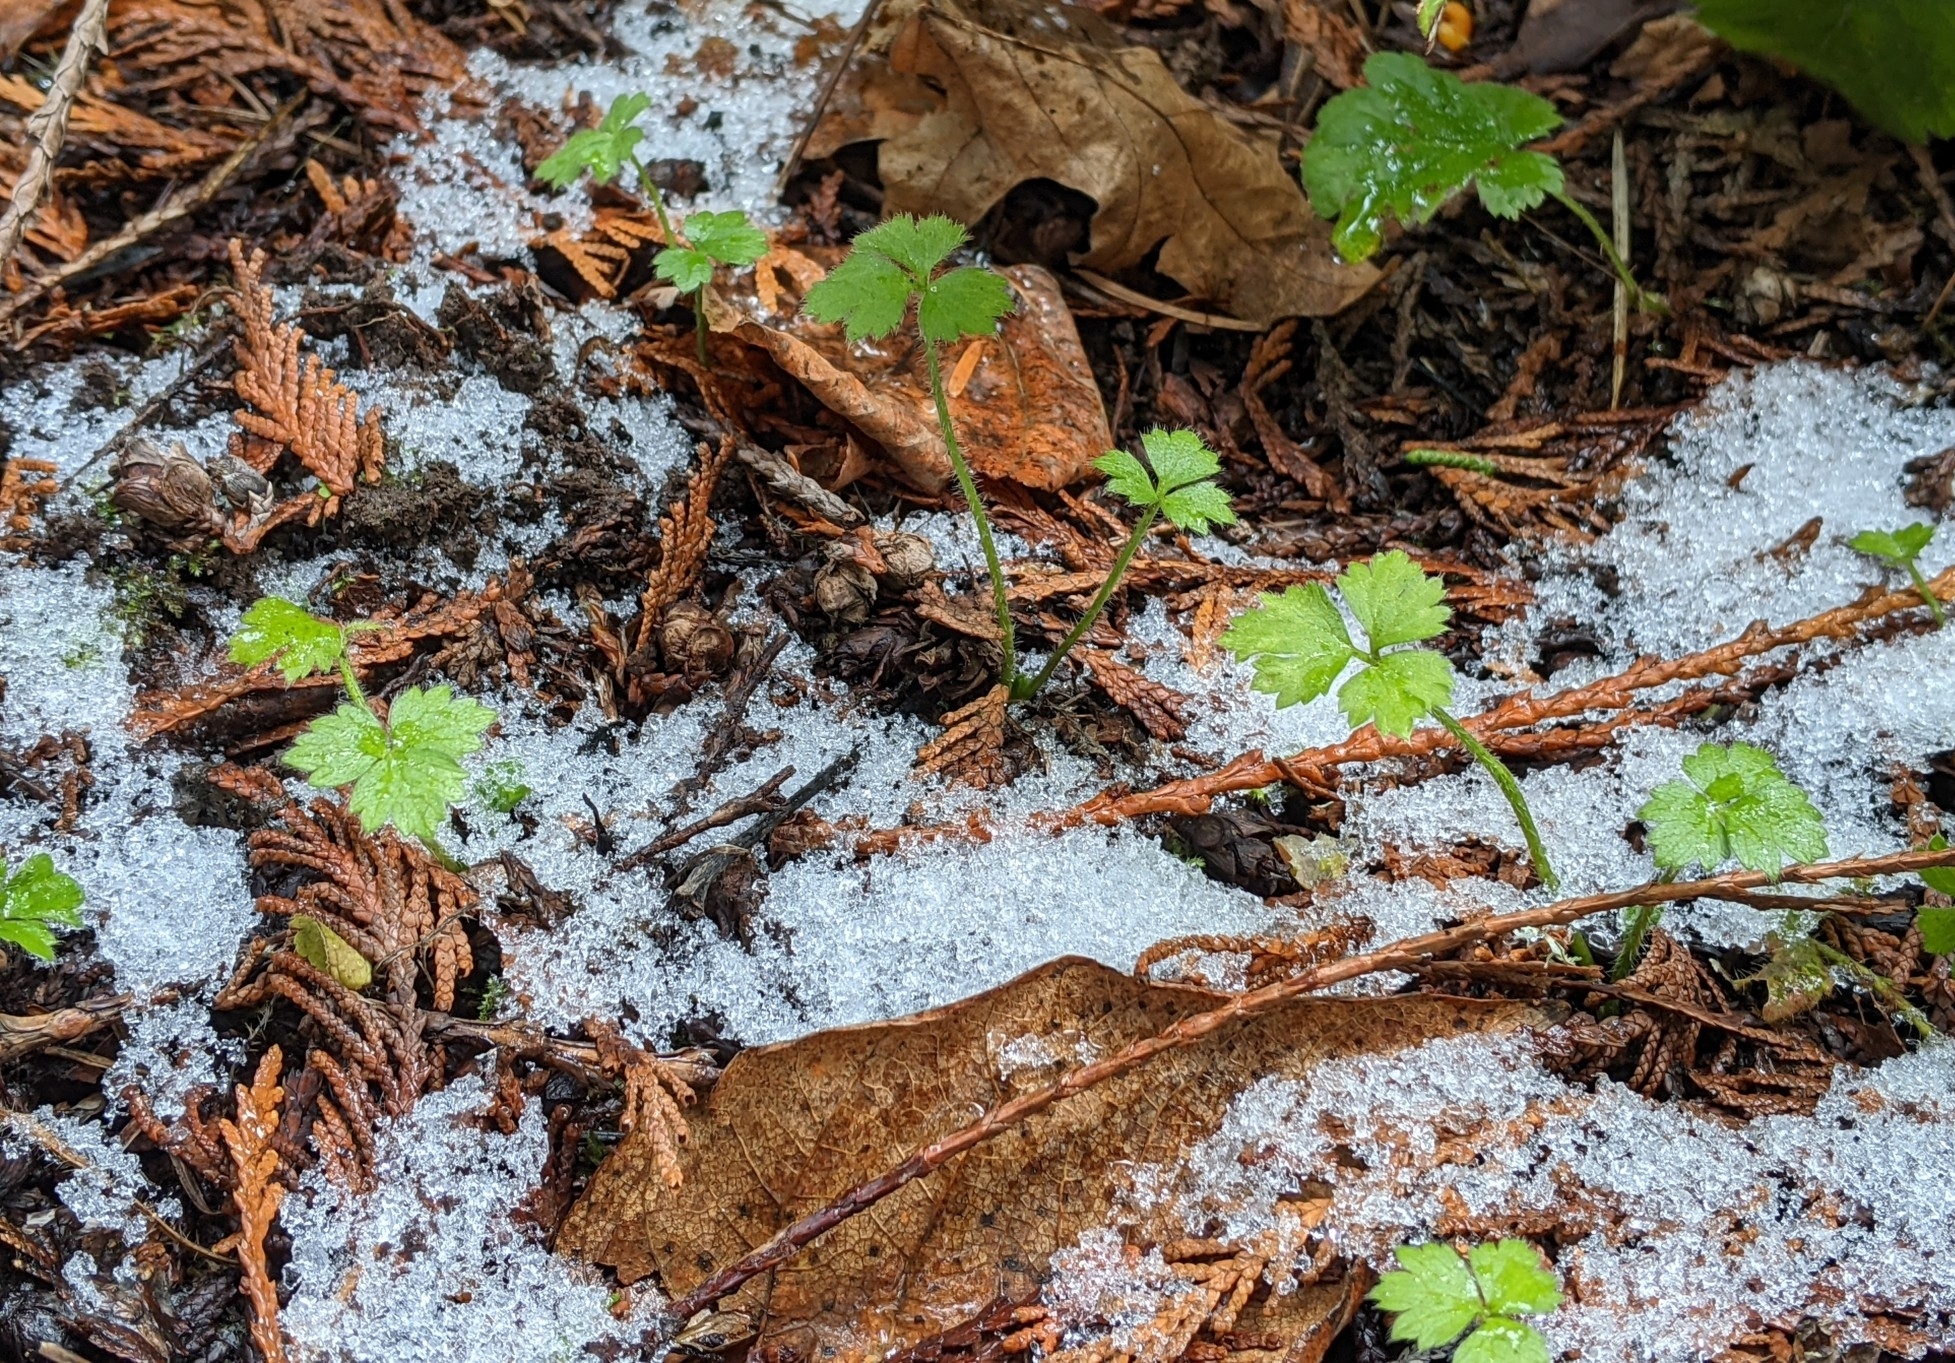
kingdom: Plantae
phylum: Tracheophyta
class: Magnoliopsida
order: Ranunculales
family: Ranunculaceae
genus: Ranunculus
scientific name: Ranunculus repens
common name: Creeping buttercup
